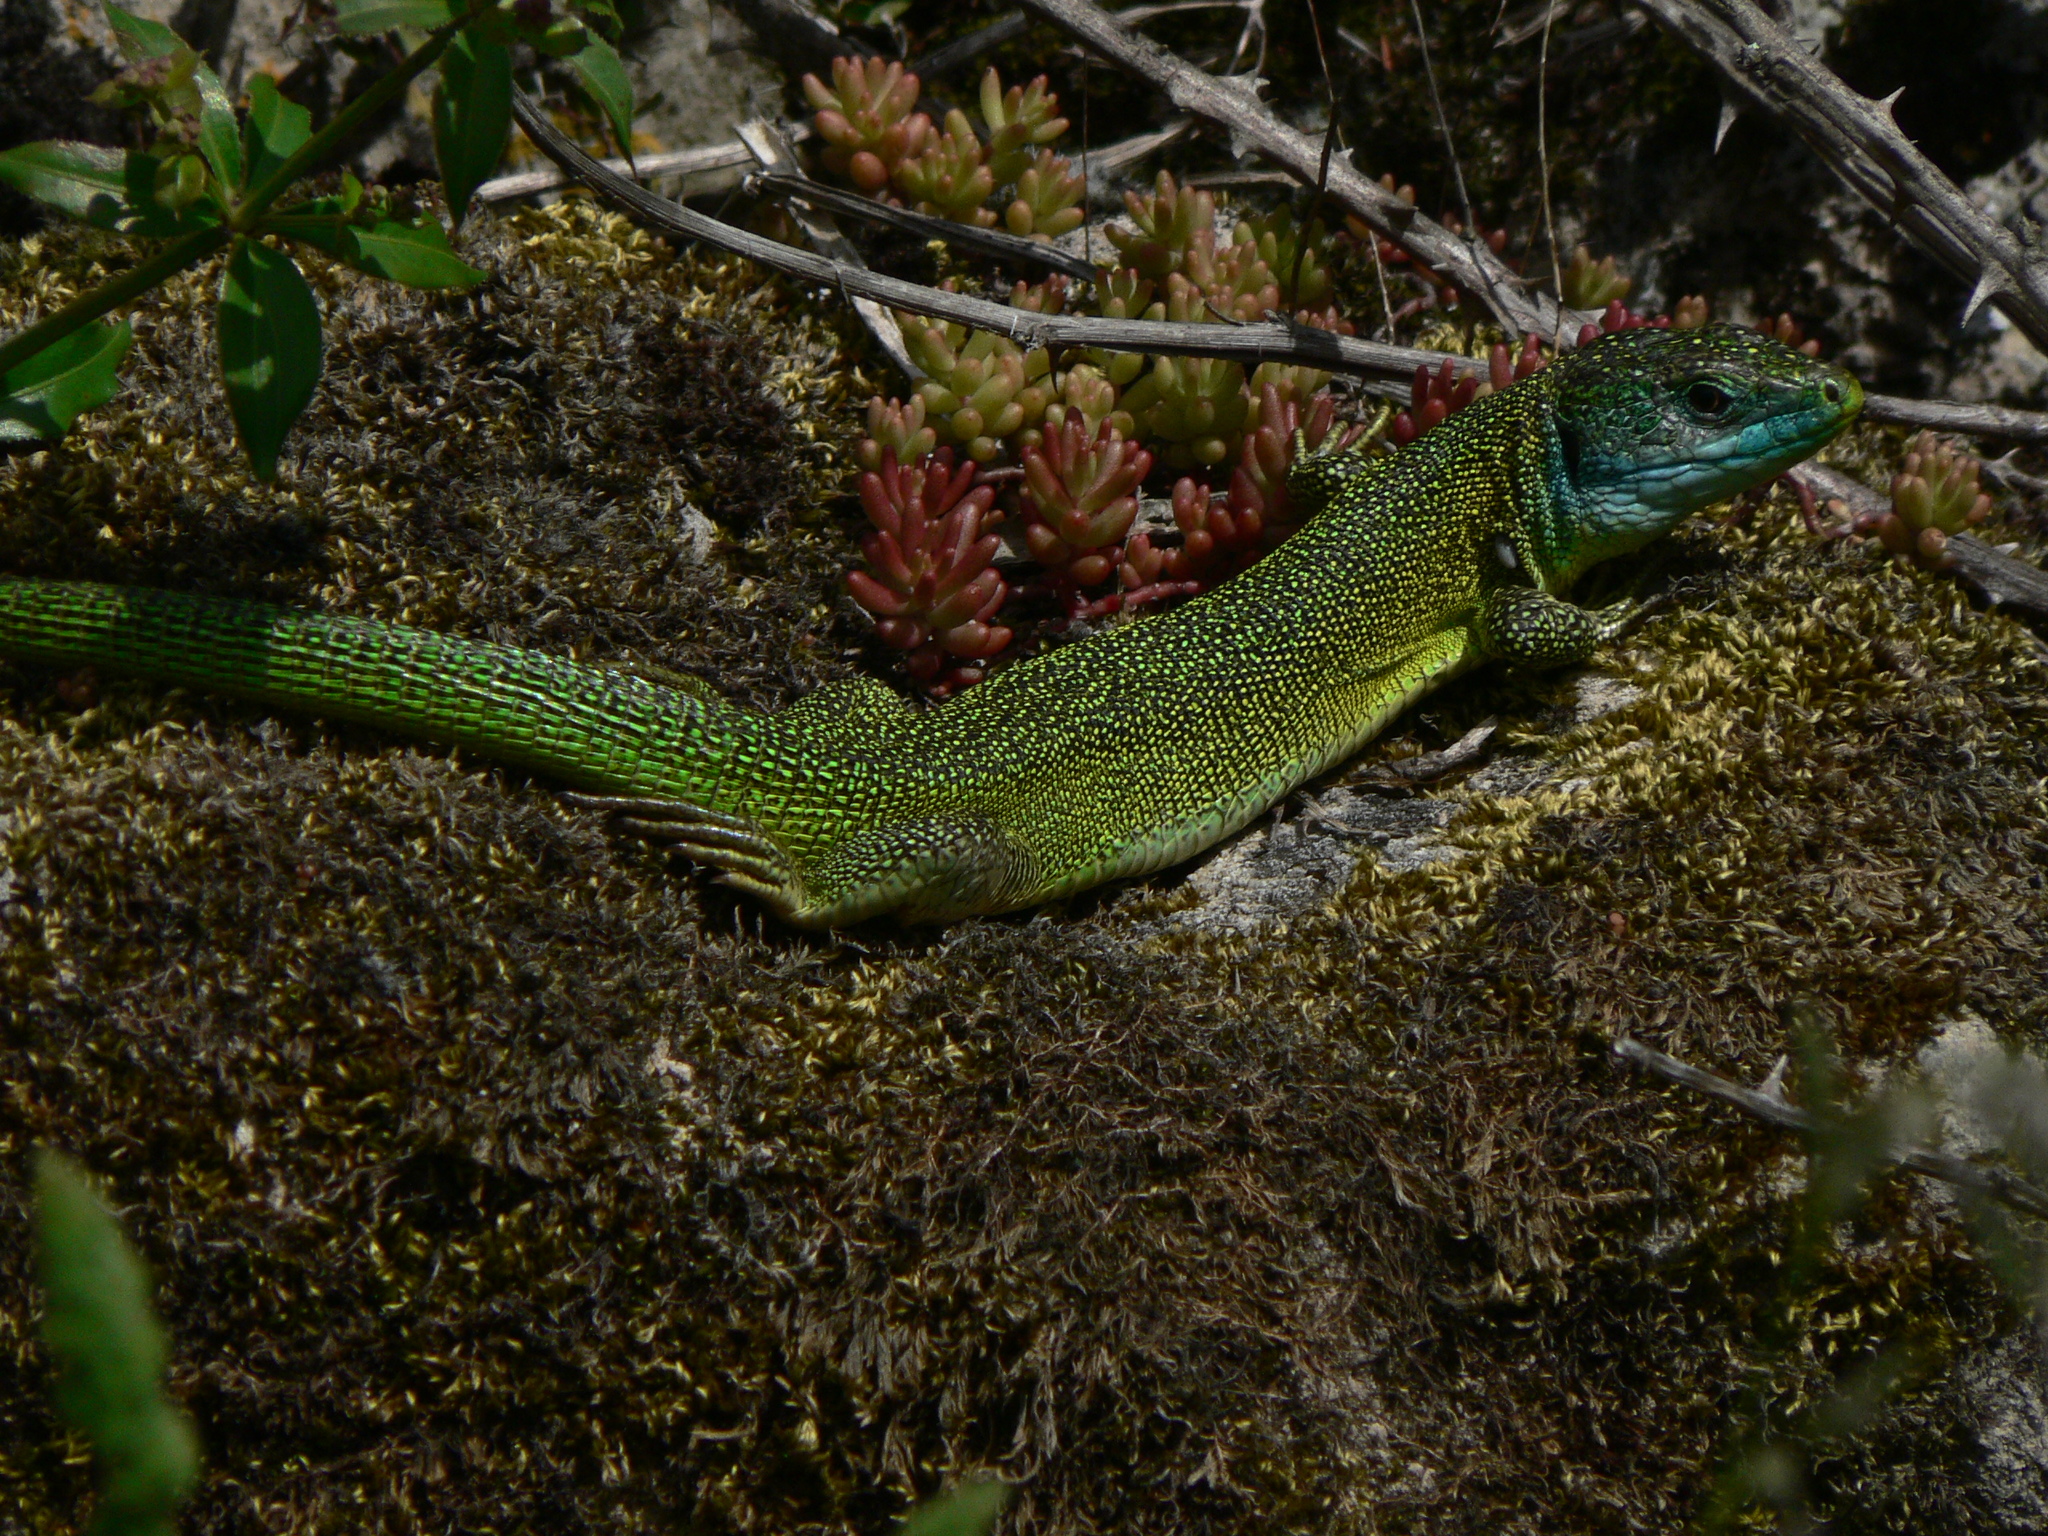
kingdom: Animalia
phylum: Chordata
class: Squamata
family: Lacertidae
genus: Lacerta
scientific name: Lacerta bilineata
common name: Western green lizard
